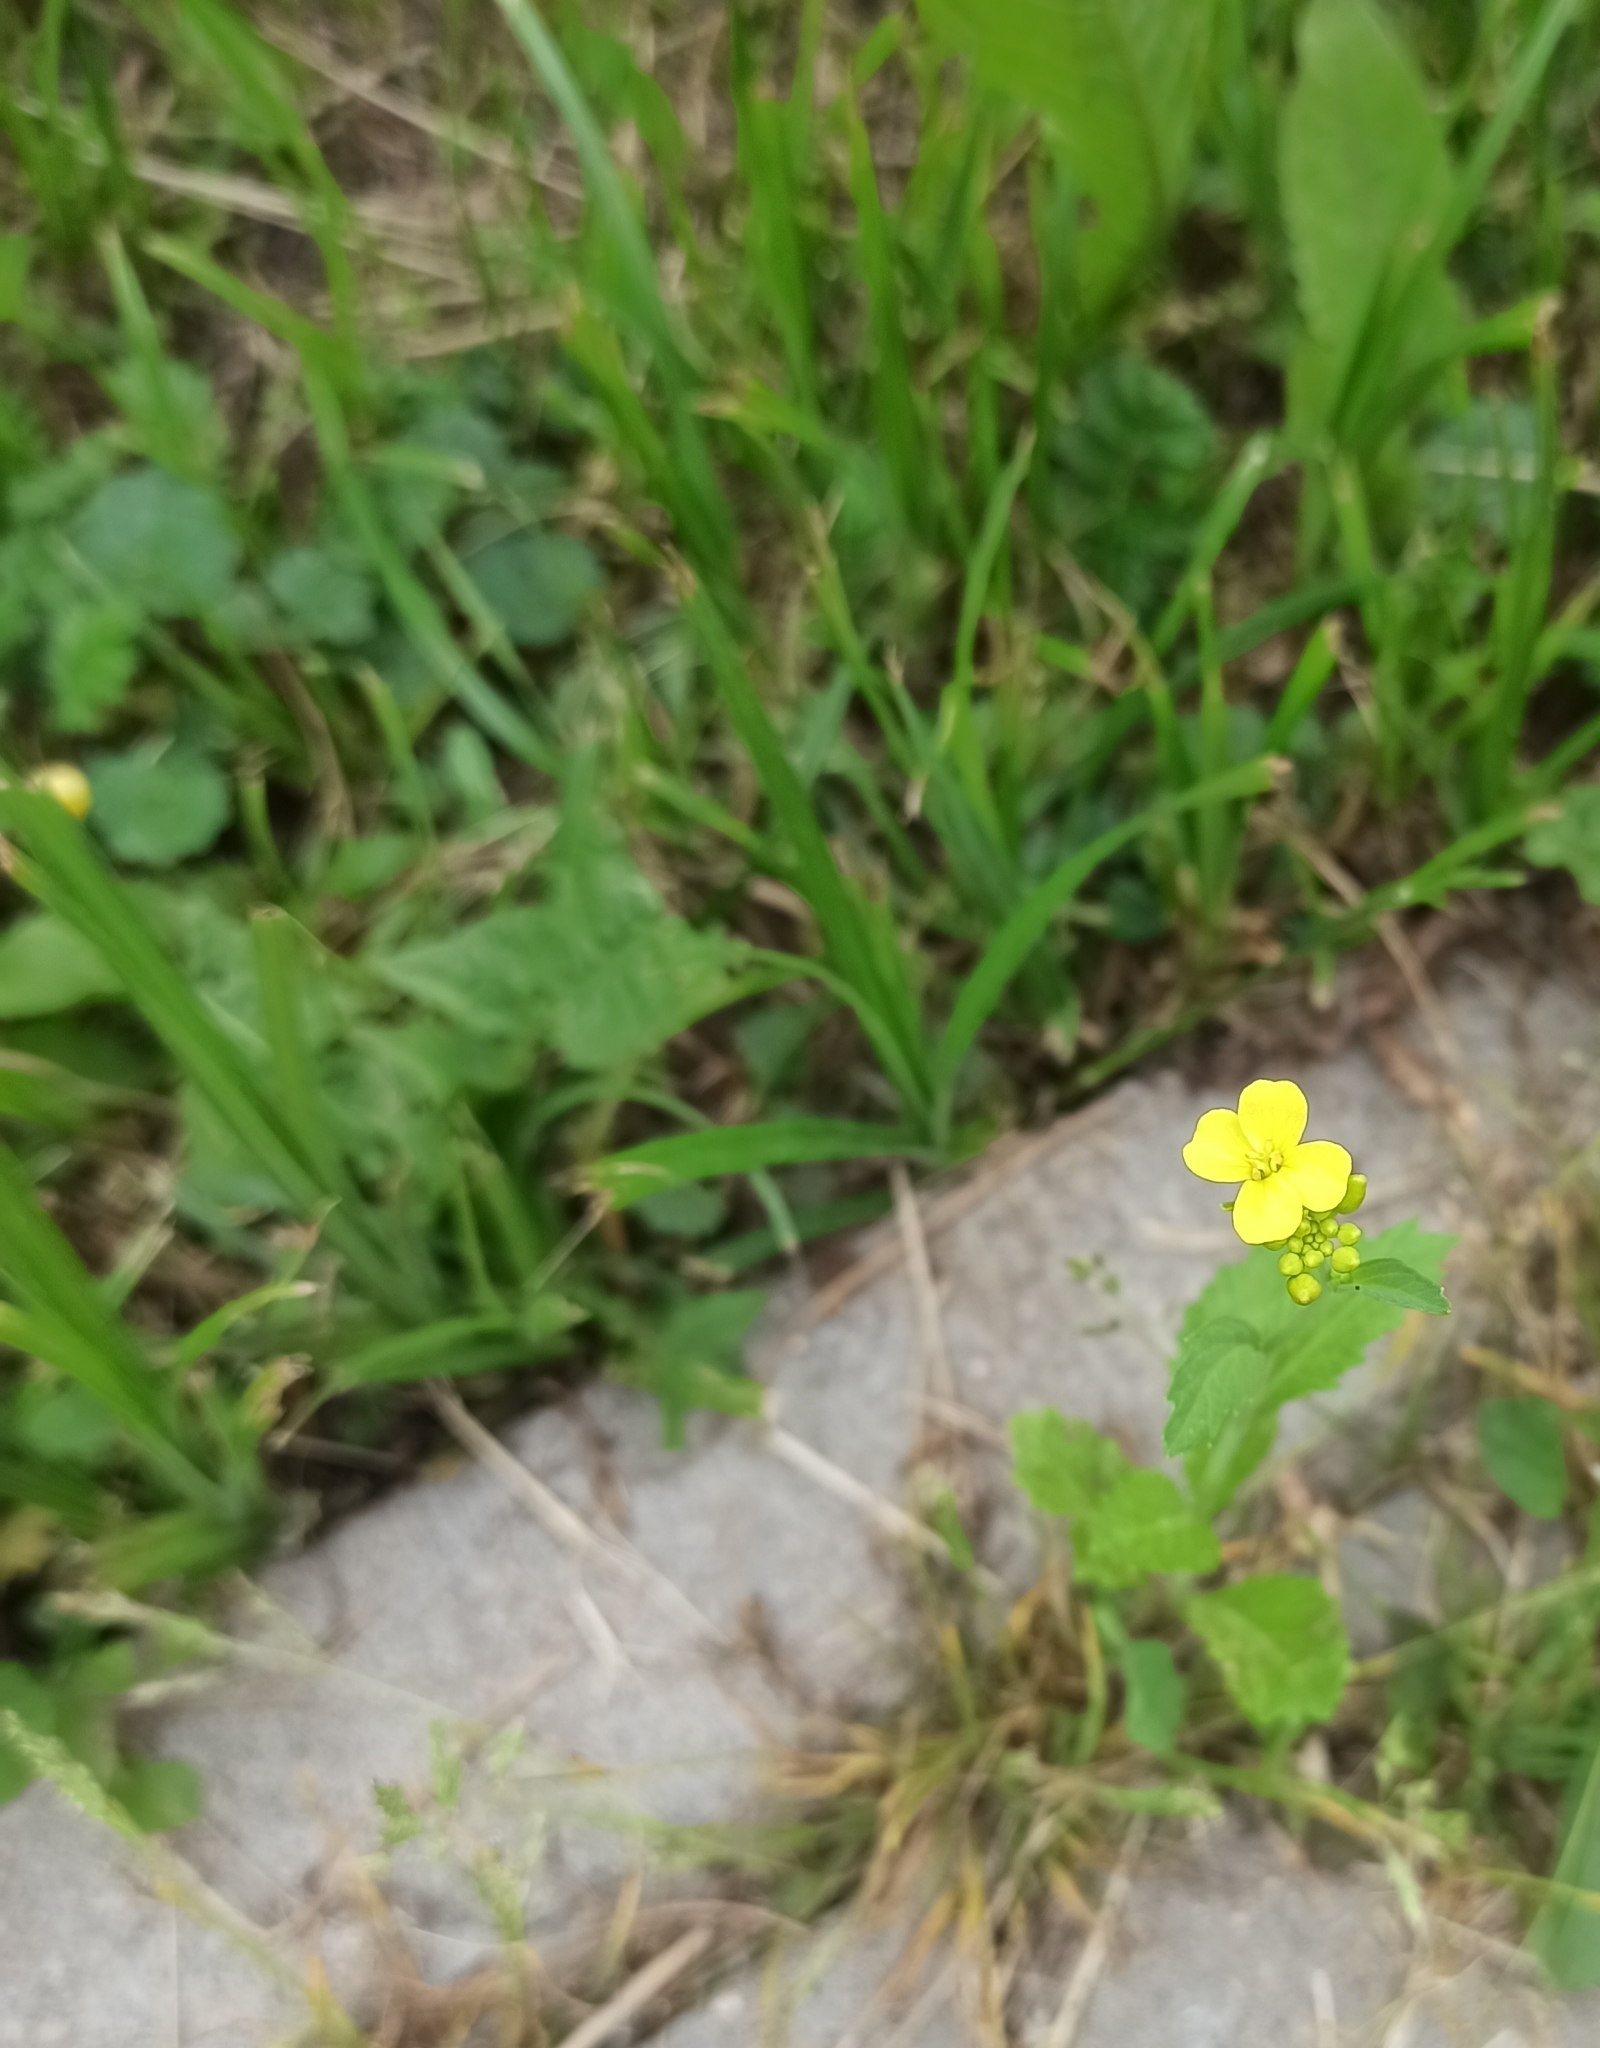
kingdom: Plantae
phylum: Tracheophyta
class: Magnoliopsida
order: Brassicales
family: Brassicaceae
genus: Sinapis
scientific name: Sinapis arvensis
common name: Charlock
